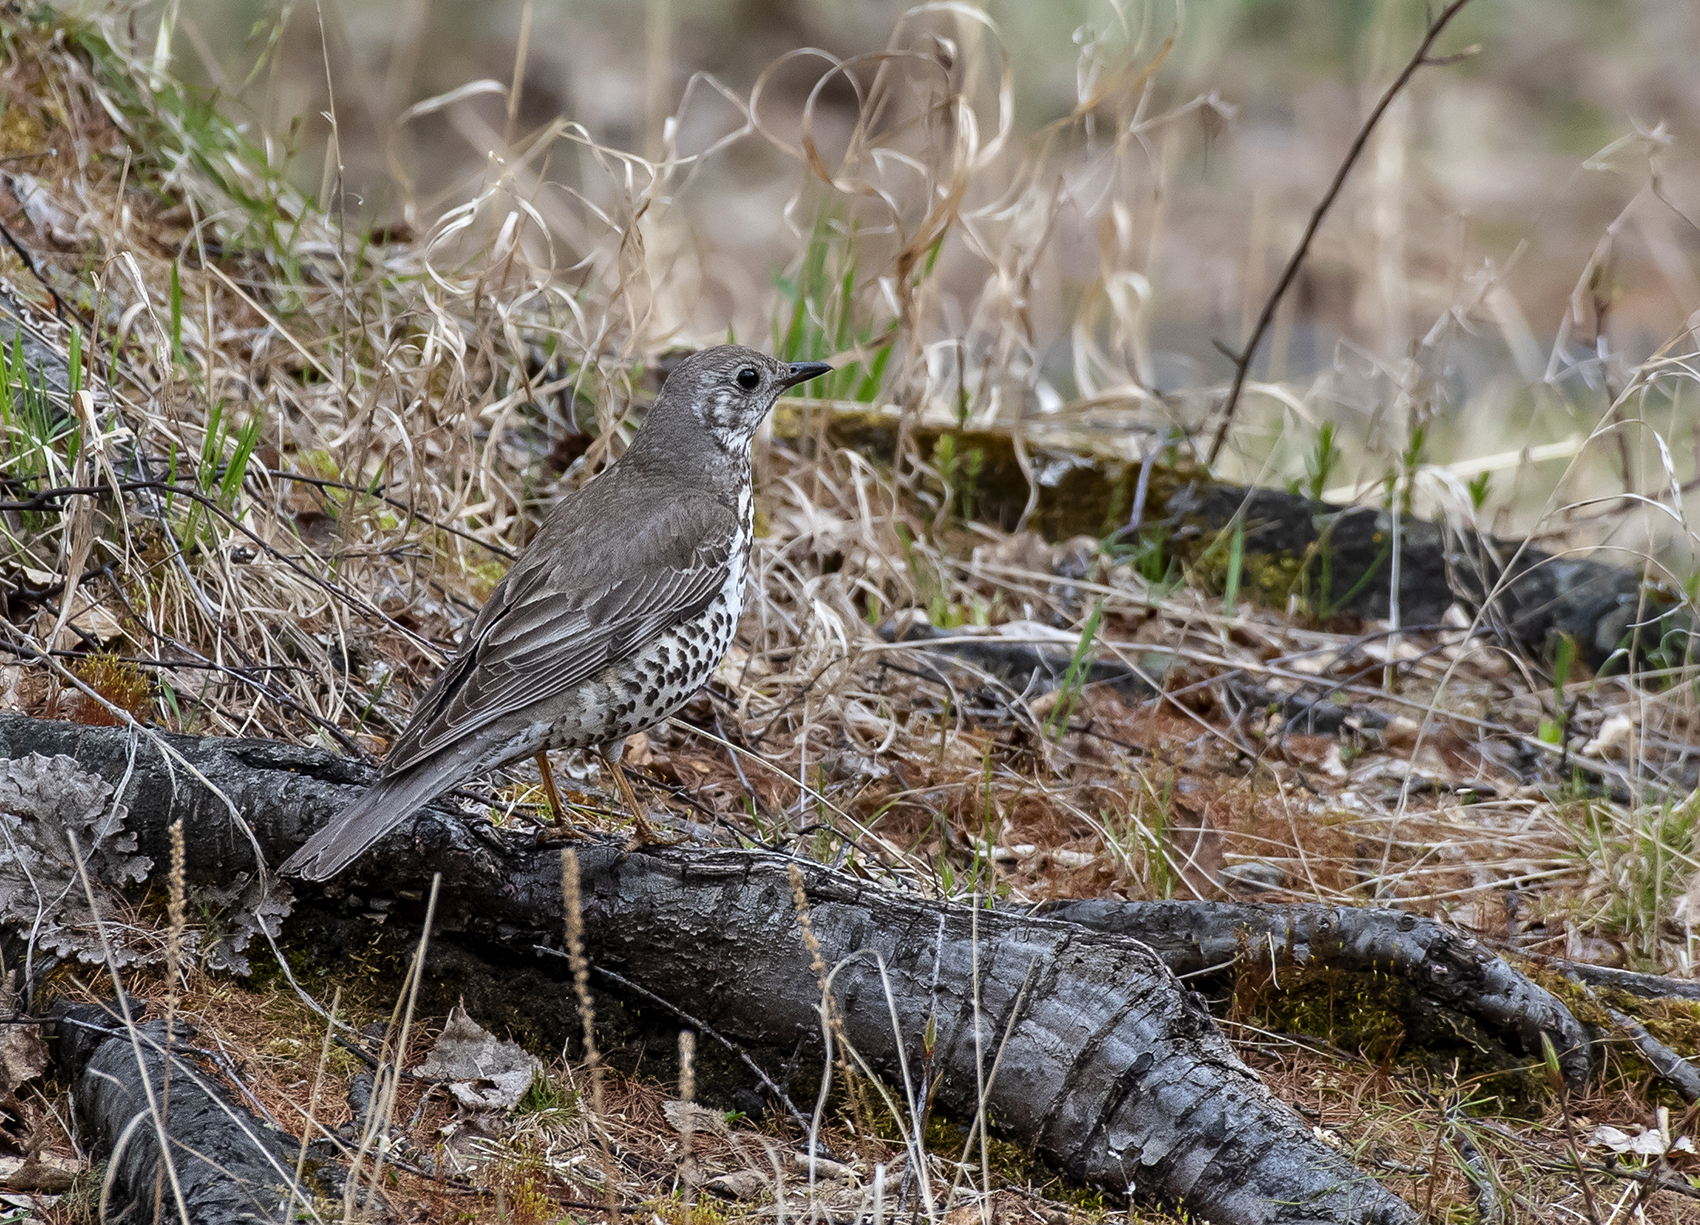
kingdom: Animalia
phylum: Chordata
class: Aves
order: Passeriformes
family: Turdidae
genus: Turdus
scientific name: Turdus viscivorus
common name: Mistle thrush
